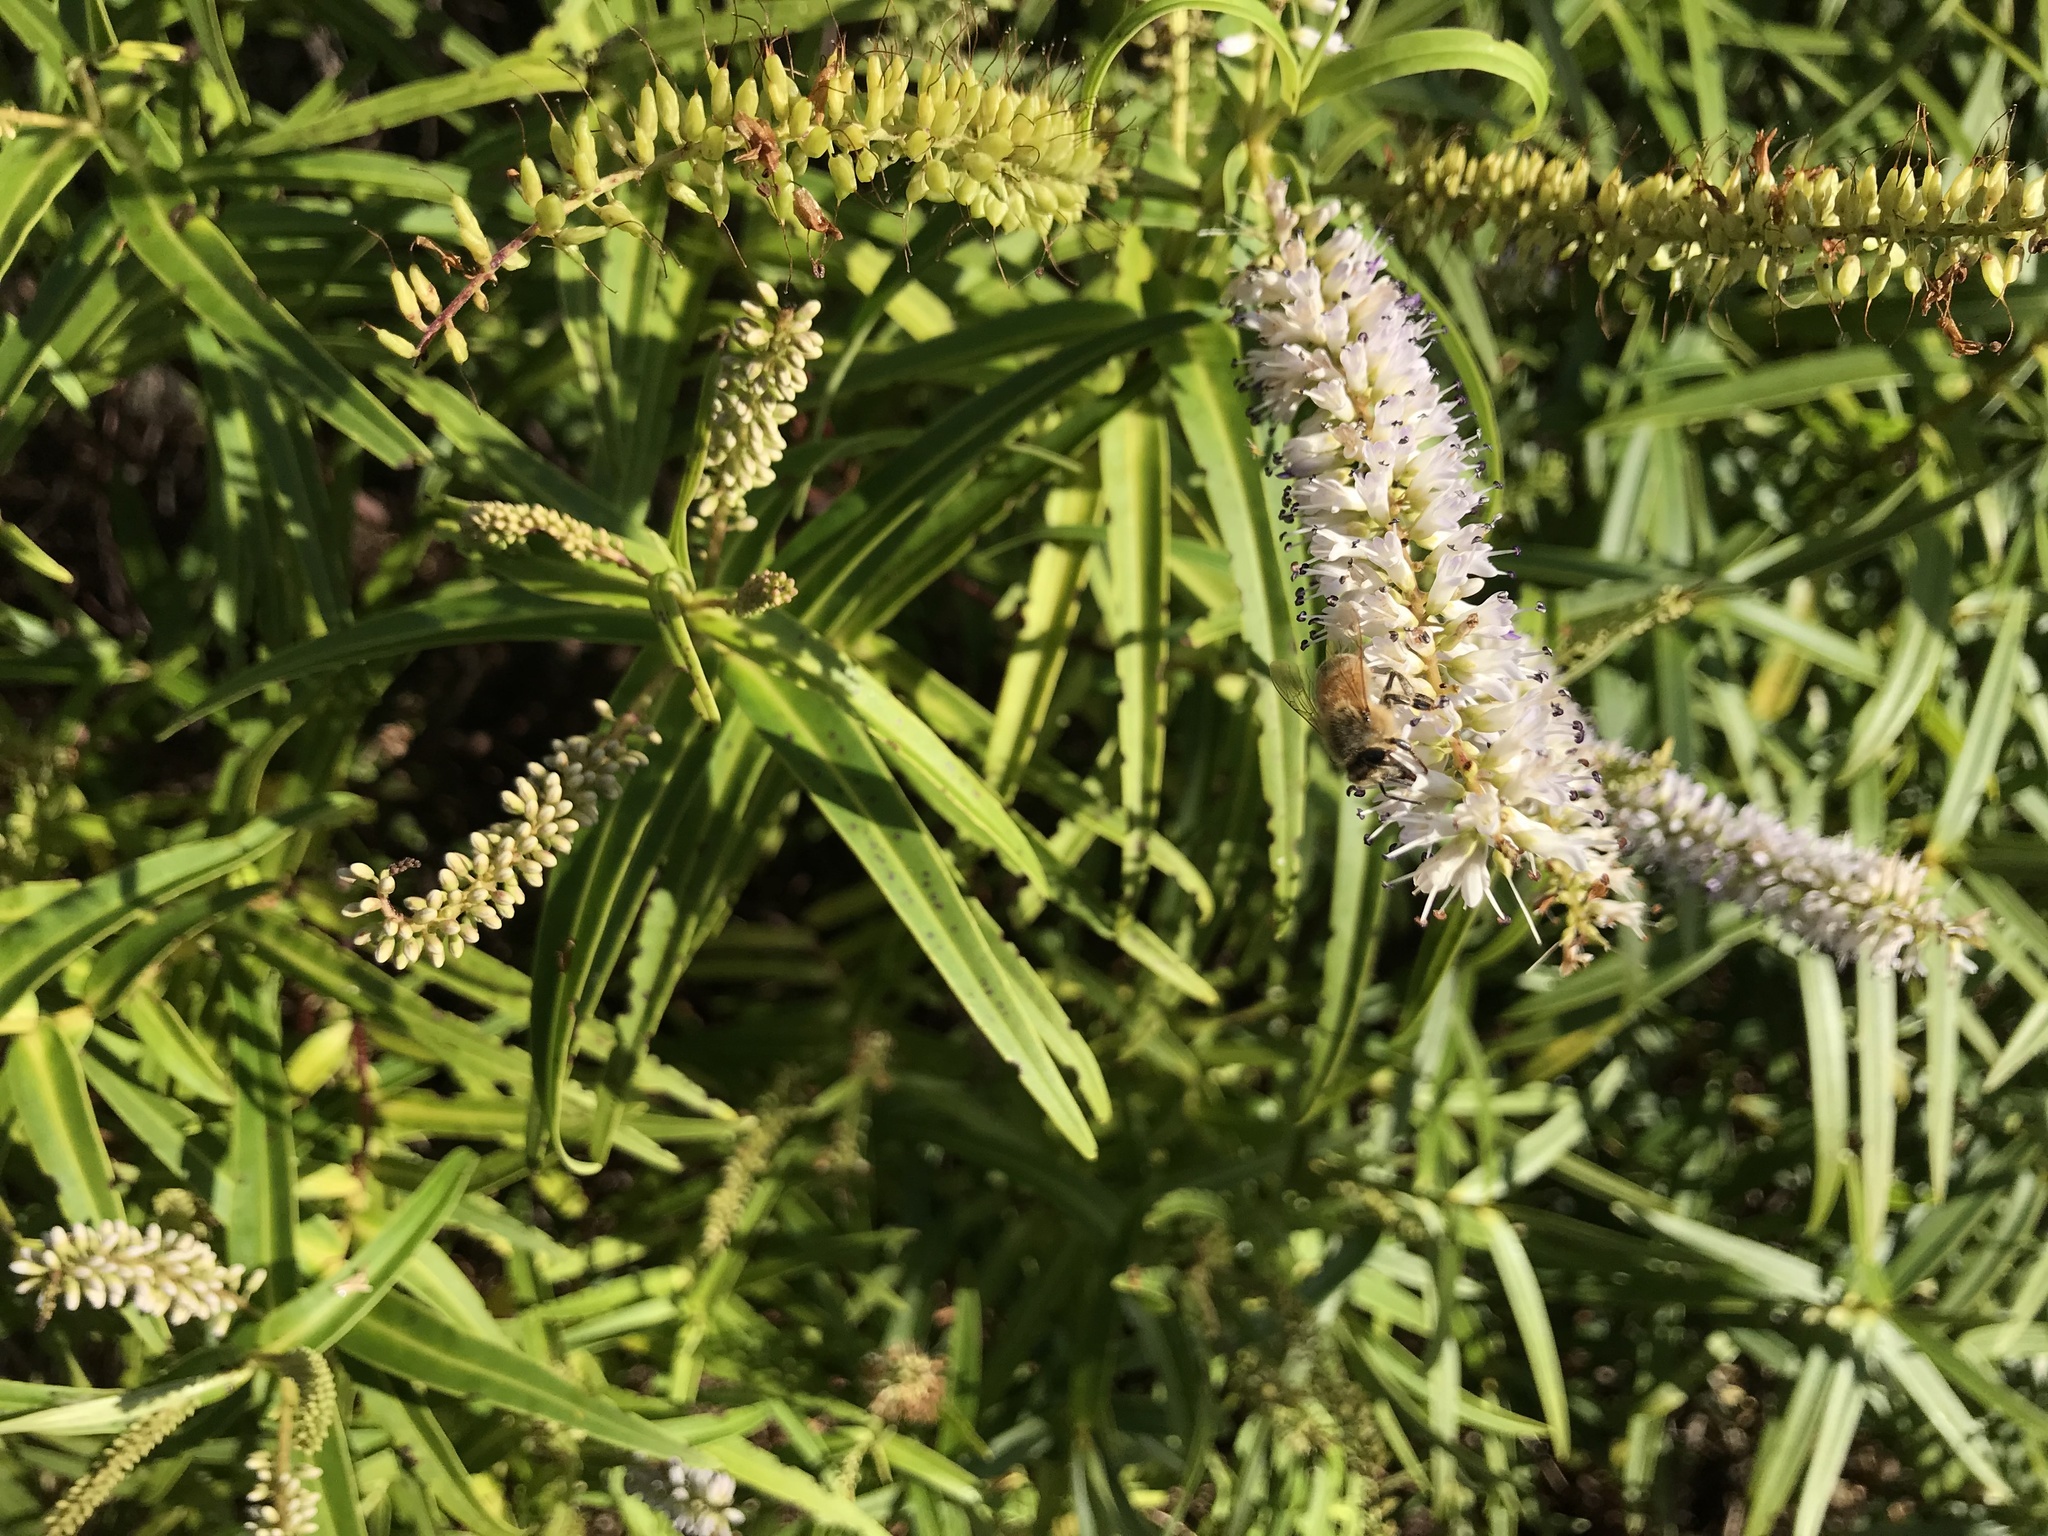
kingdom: Animalia
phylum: Arthropoda
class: Insecta
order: Hymenoptera
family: Apidae
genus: Apis
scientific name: Apis mellifera
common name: Honey bee
